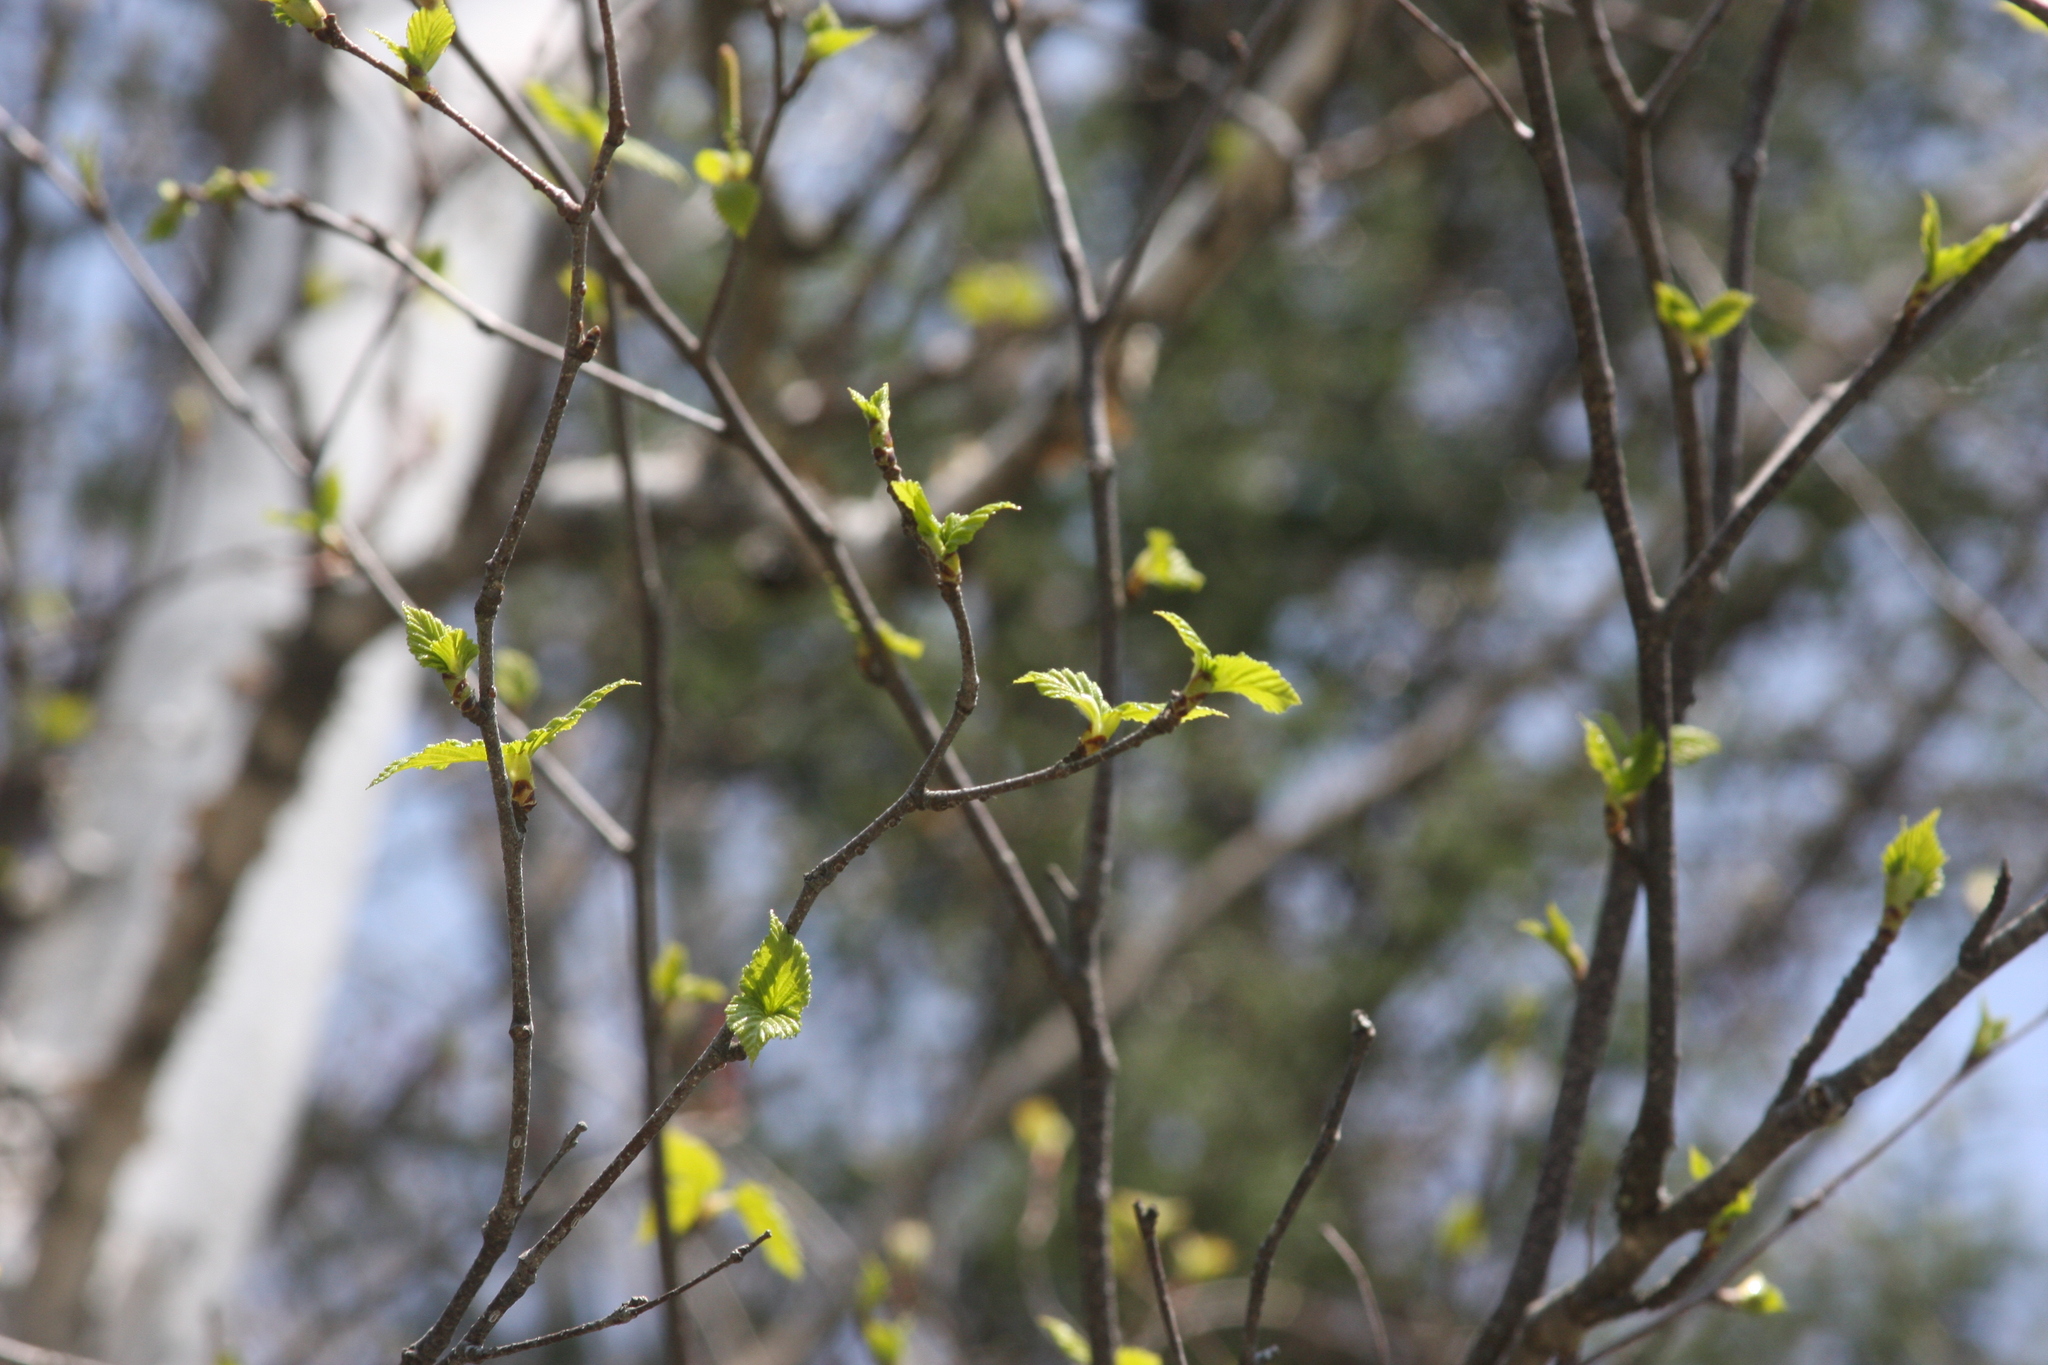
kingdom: Plantae
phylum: Tracheophyta
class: Magnoliopsida
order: Fagales
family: Betulaceae
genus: Betula
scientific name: Betula papyrifera
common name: Paper birch
